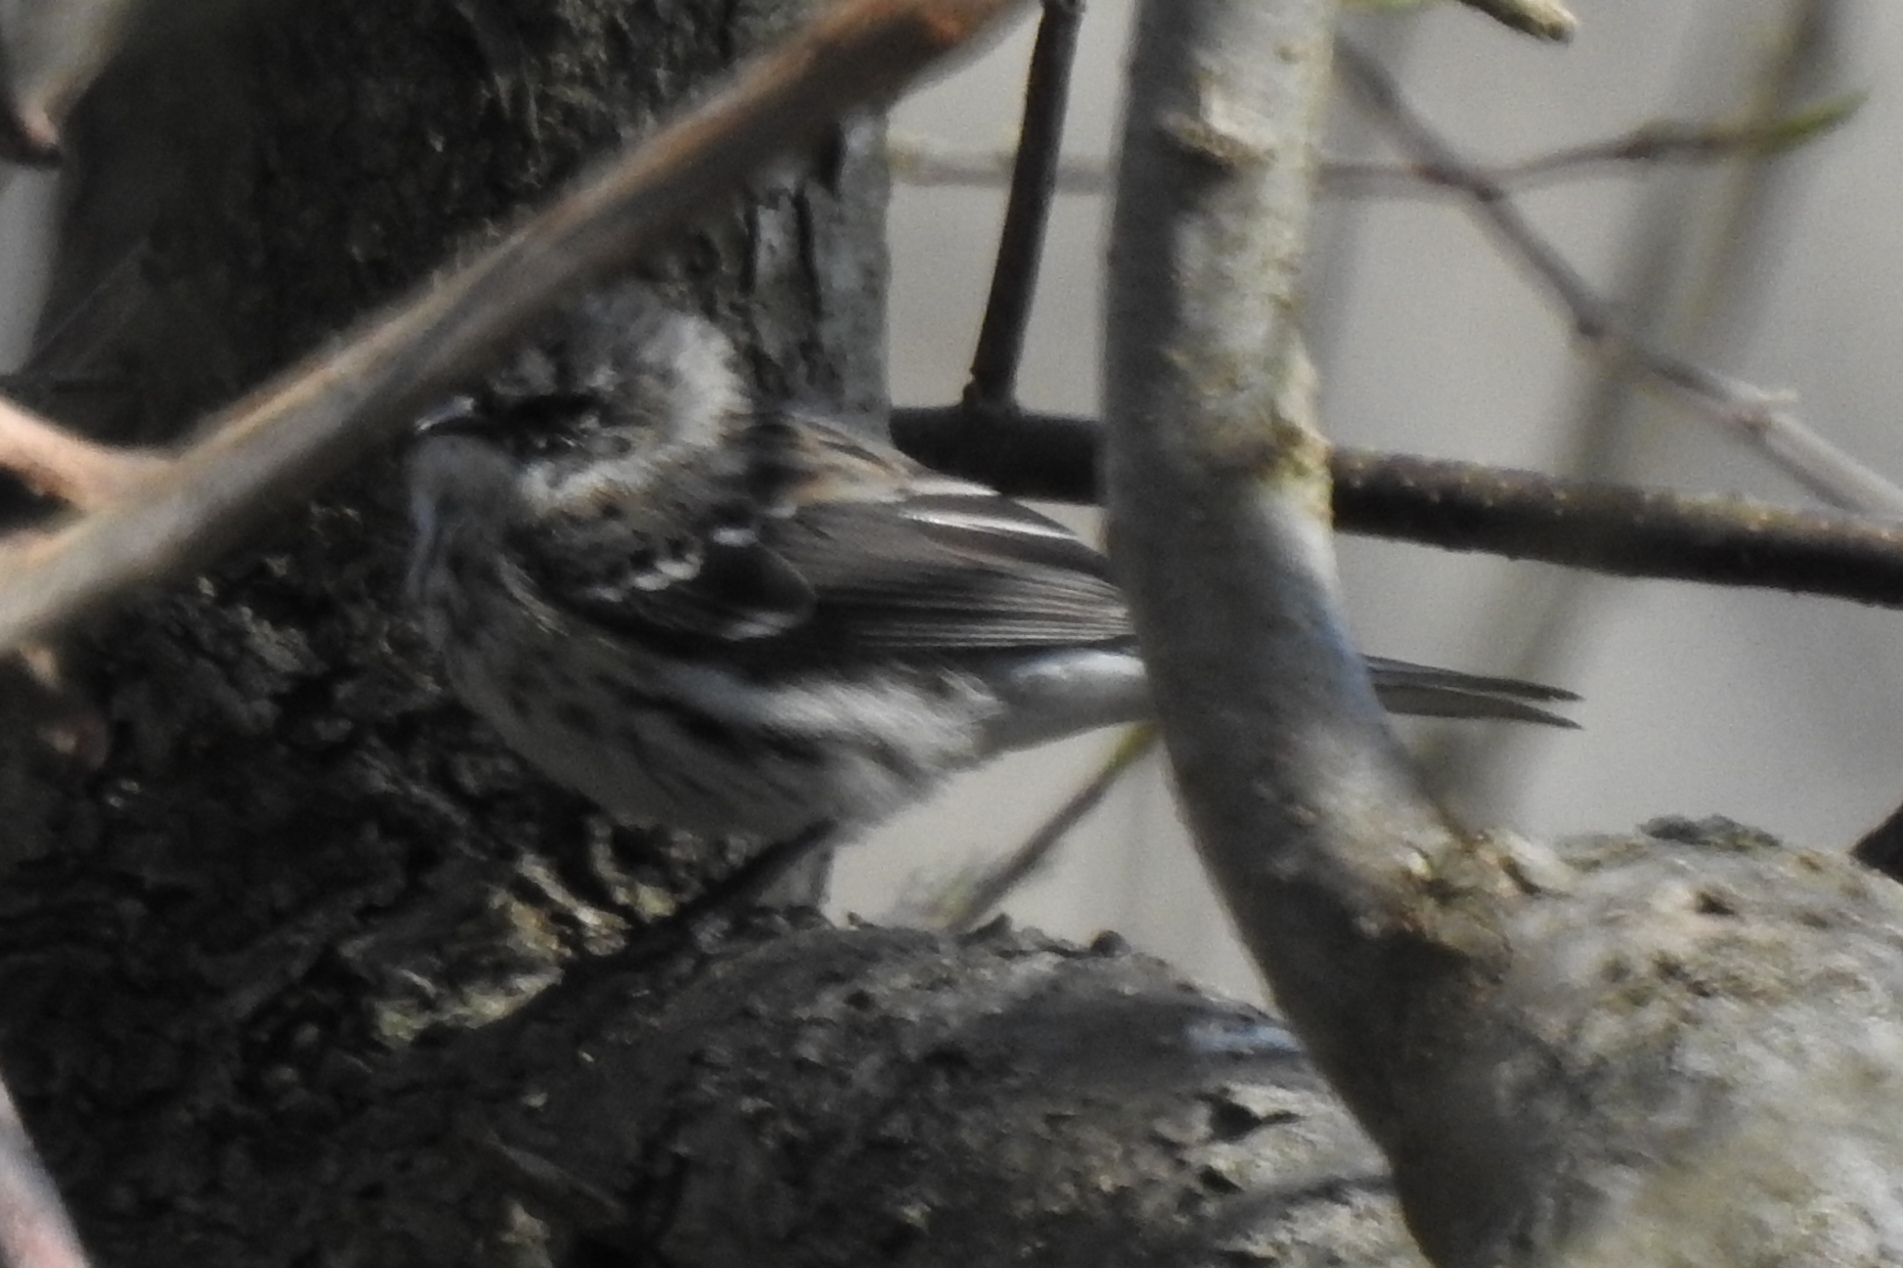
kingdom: Animalia
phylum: Chordata
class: Aves
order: Passeriformes
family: Parulidae
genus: Setophaga
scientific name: Setophaga coronata
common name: Myrtle warbler
